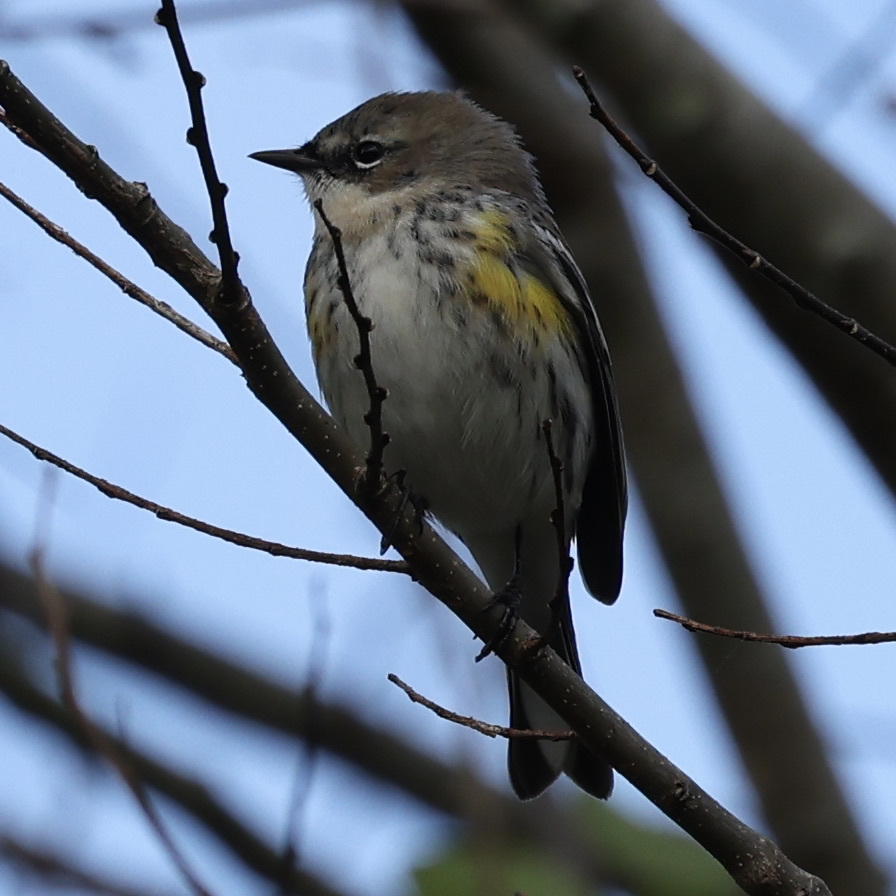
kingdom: Animalia
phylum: Chordata
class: Aves
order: Passeriformes
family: Parulidae
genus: Setophaga
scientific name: Setophaga coronata
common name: Myrtle warbler
